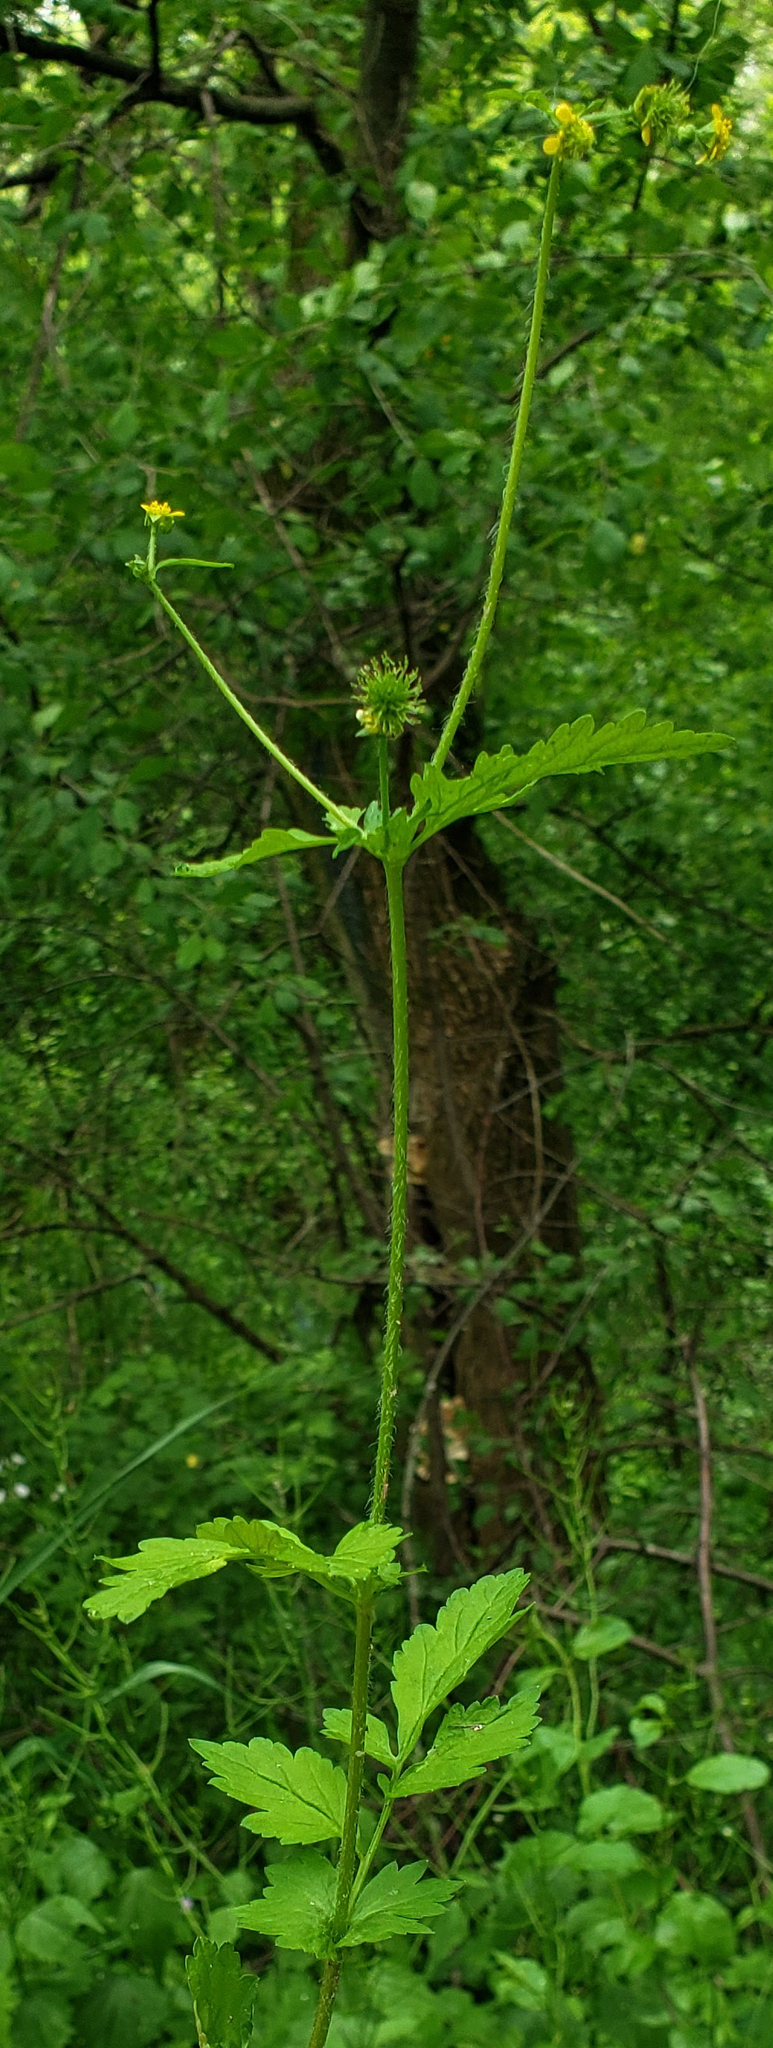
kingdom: Plantae
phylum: Tracheophyta
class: Magnoliopsida
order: Rosales
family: Rosaceae
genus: Geum
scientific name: Geum vernum
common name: Spring avens
